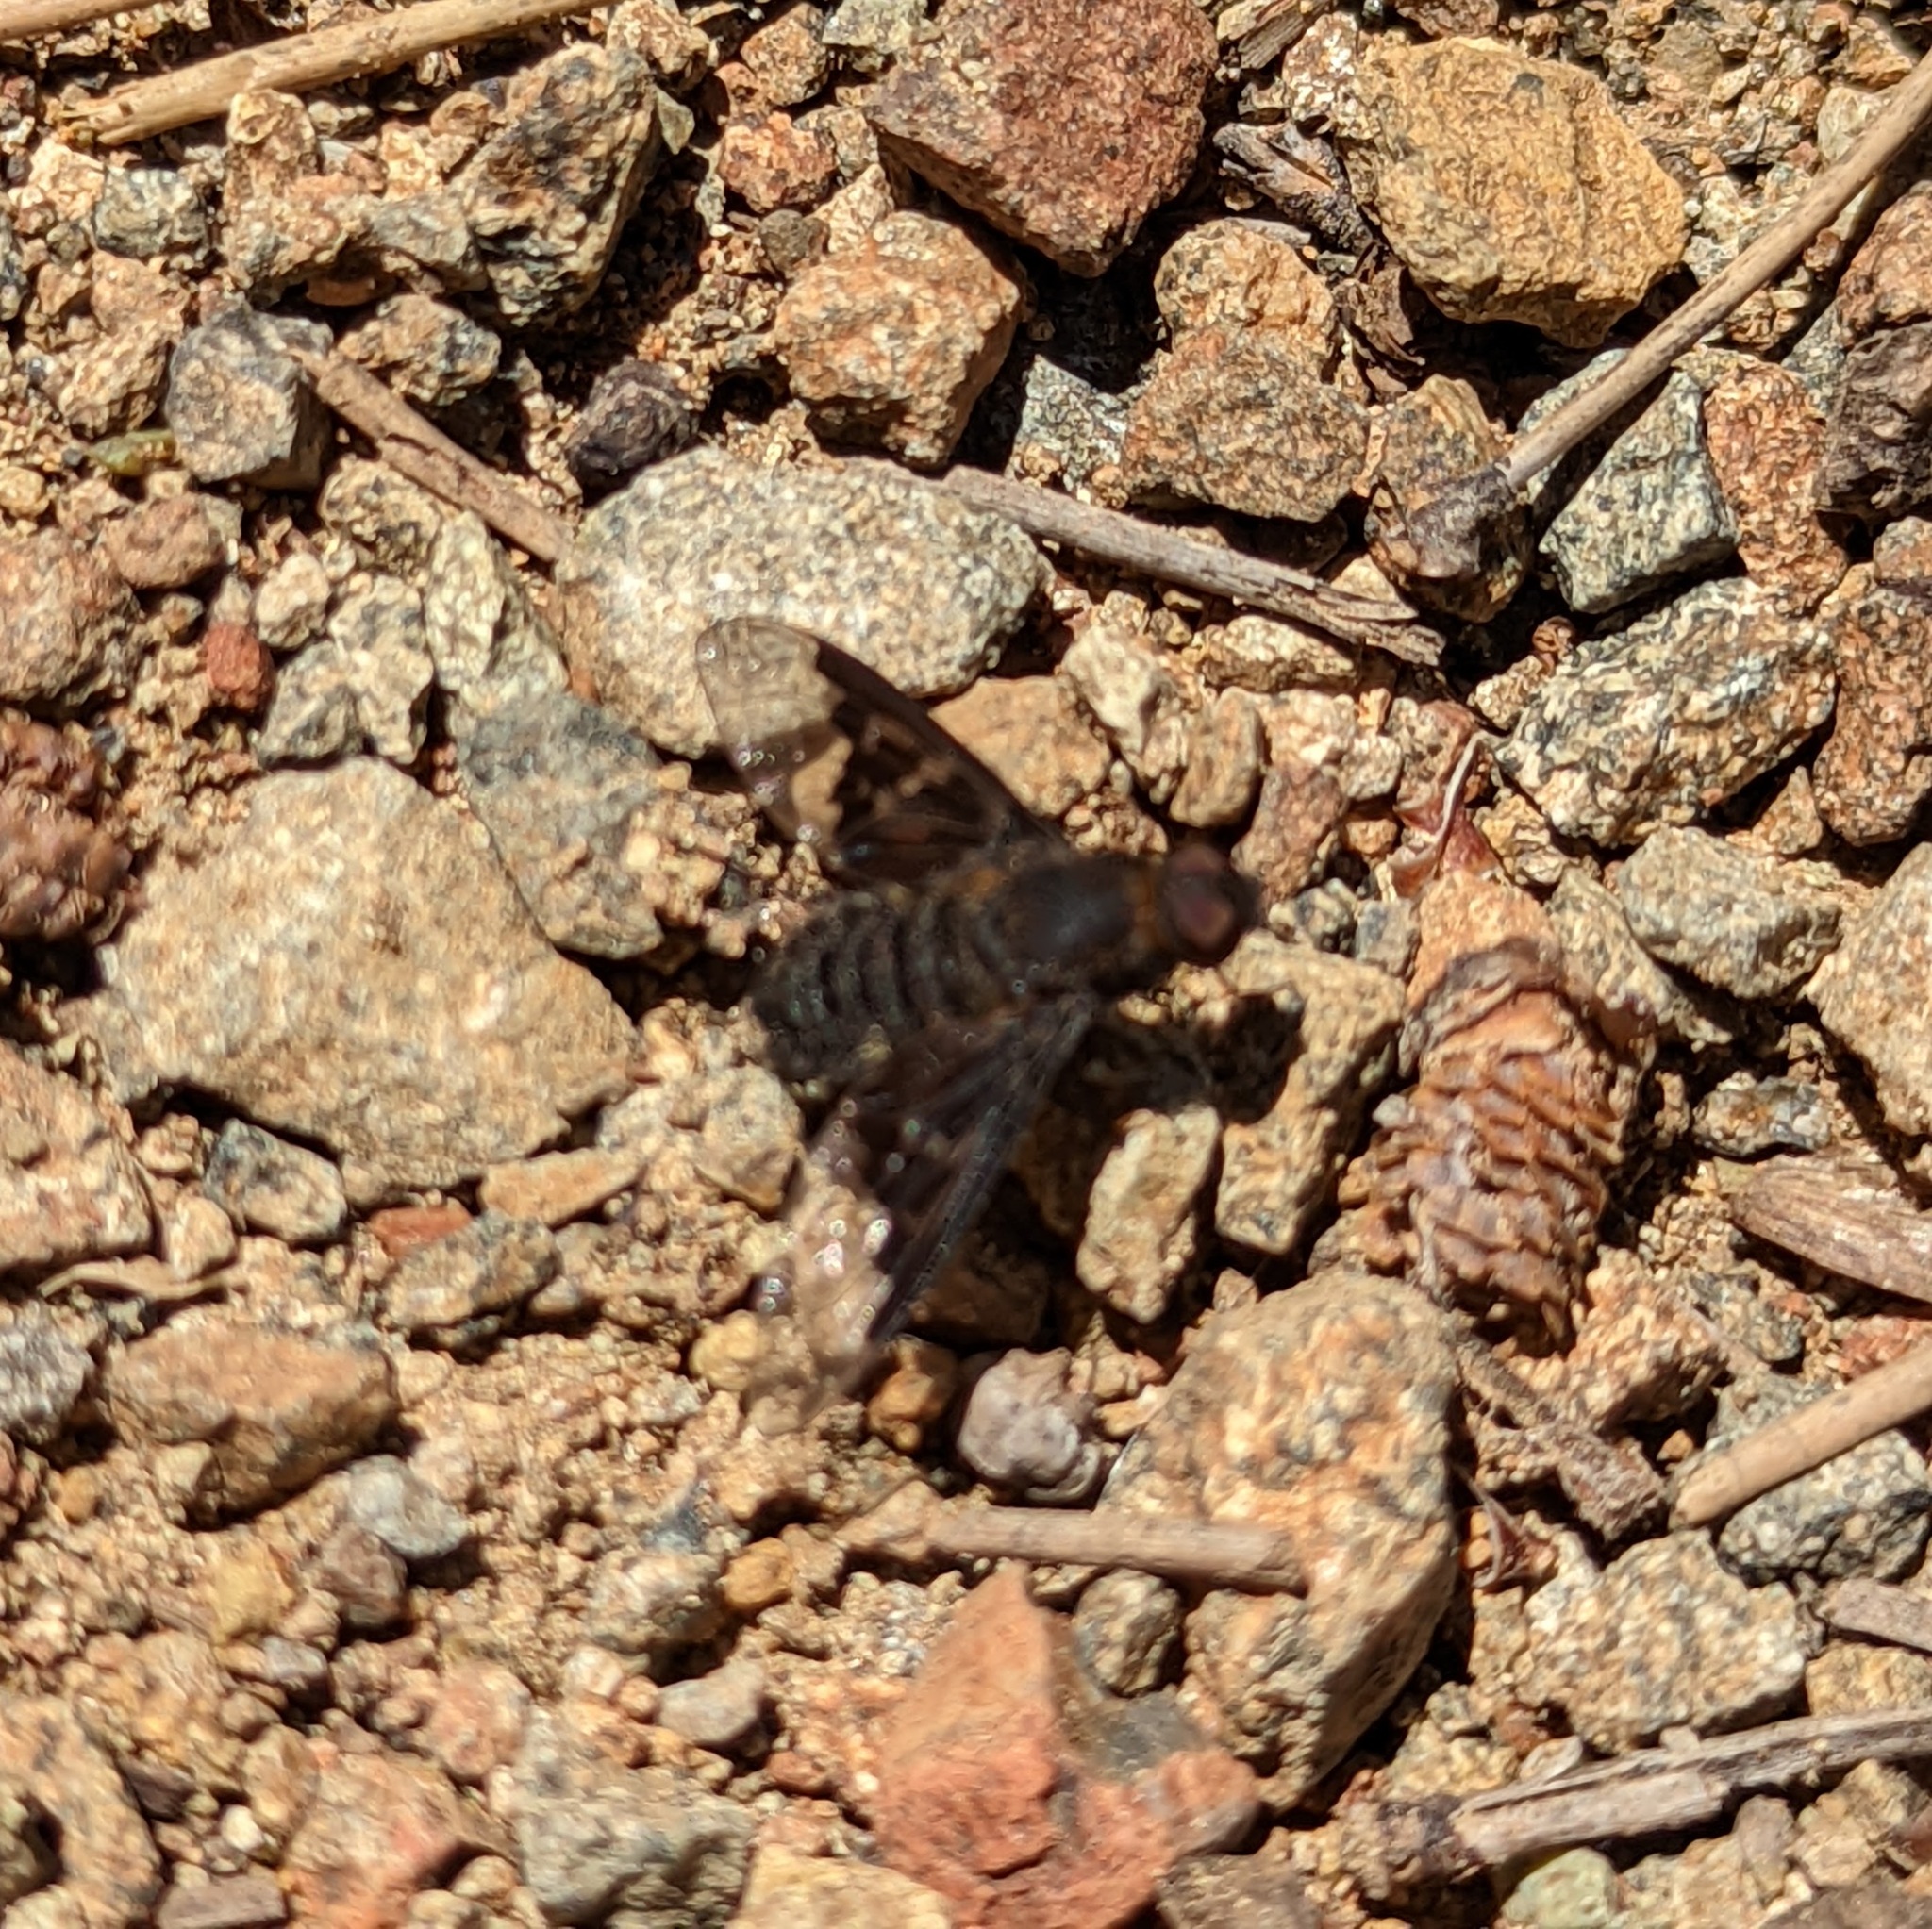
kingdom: Animalia
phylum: Arthropoda
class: Insecta
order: Diptera
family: Bombyliidae
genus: Hemipenthes
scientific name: Hemipenthes morio
